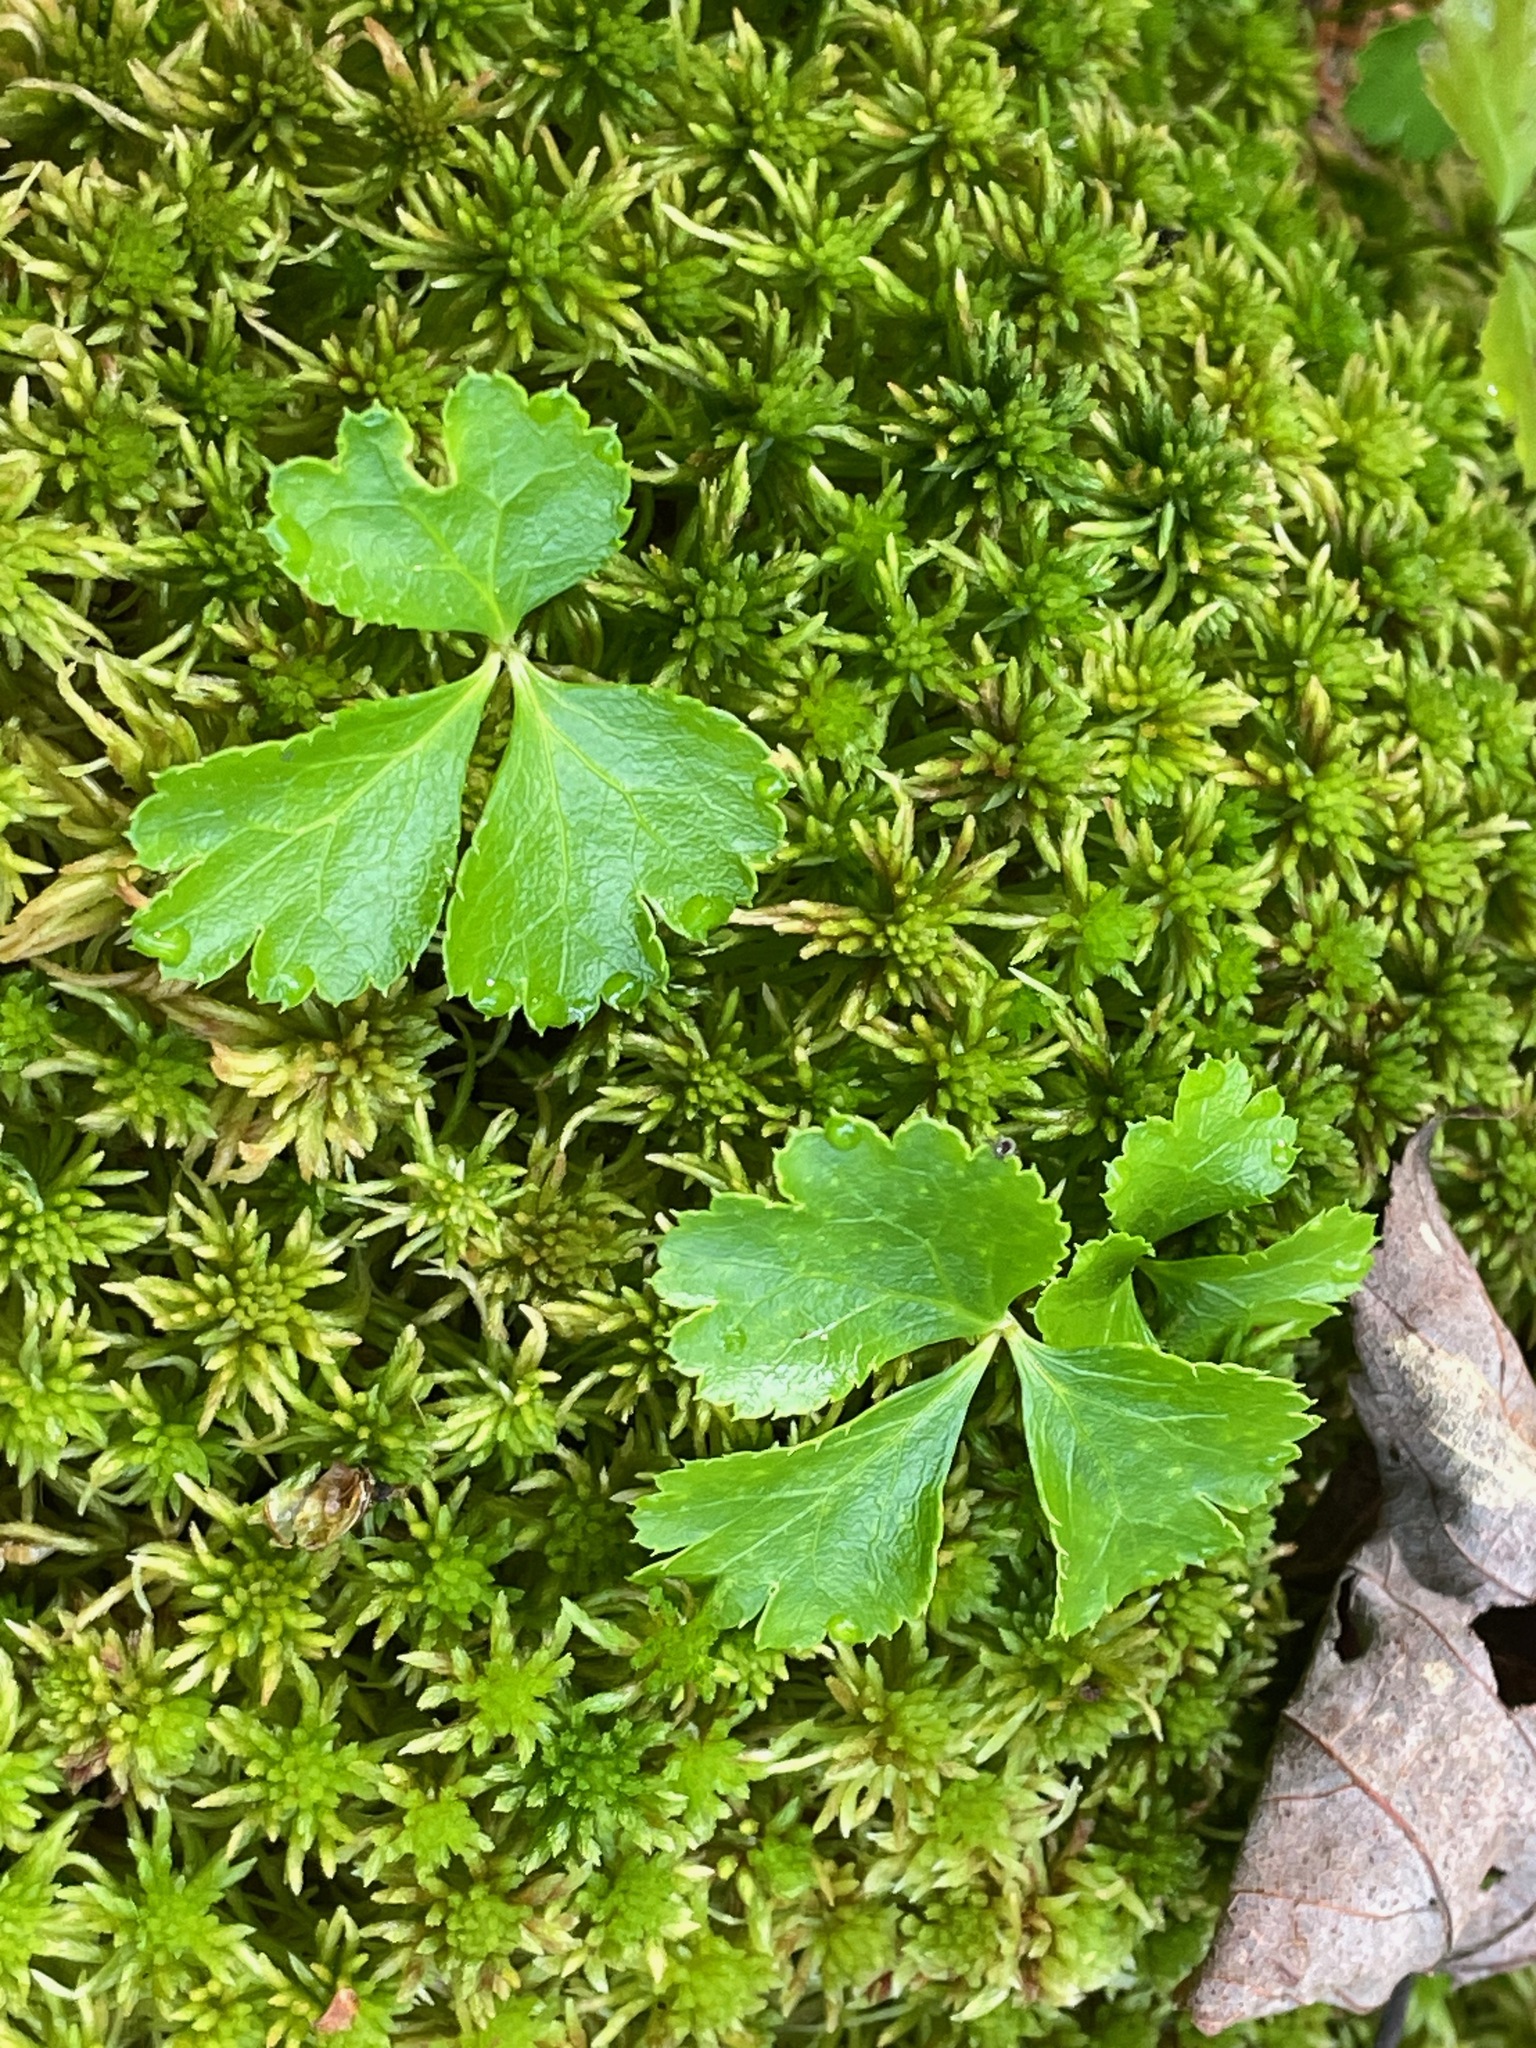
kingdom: Plantae
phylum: Tracheophyta
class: Magnoliopsida
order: Ranunculales
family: Ranunculaceae
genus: Coptis
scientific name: Coptis trifolia
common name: Canker-root
